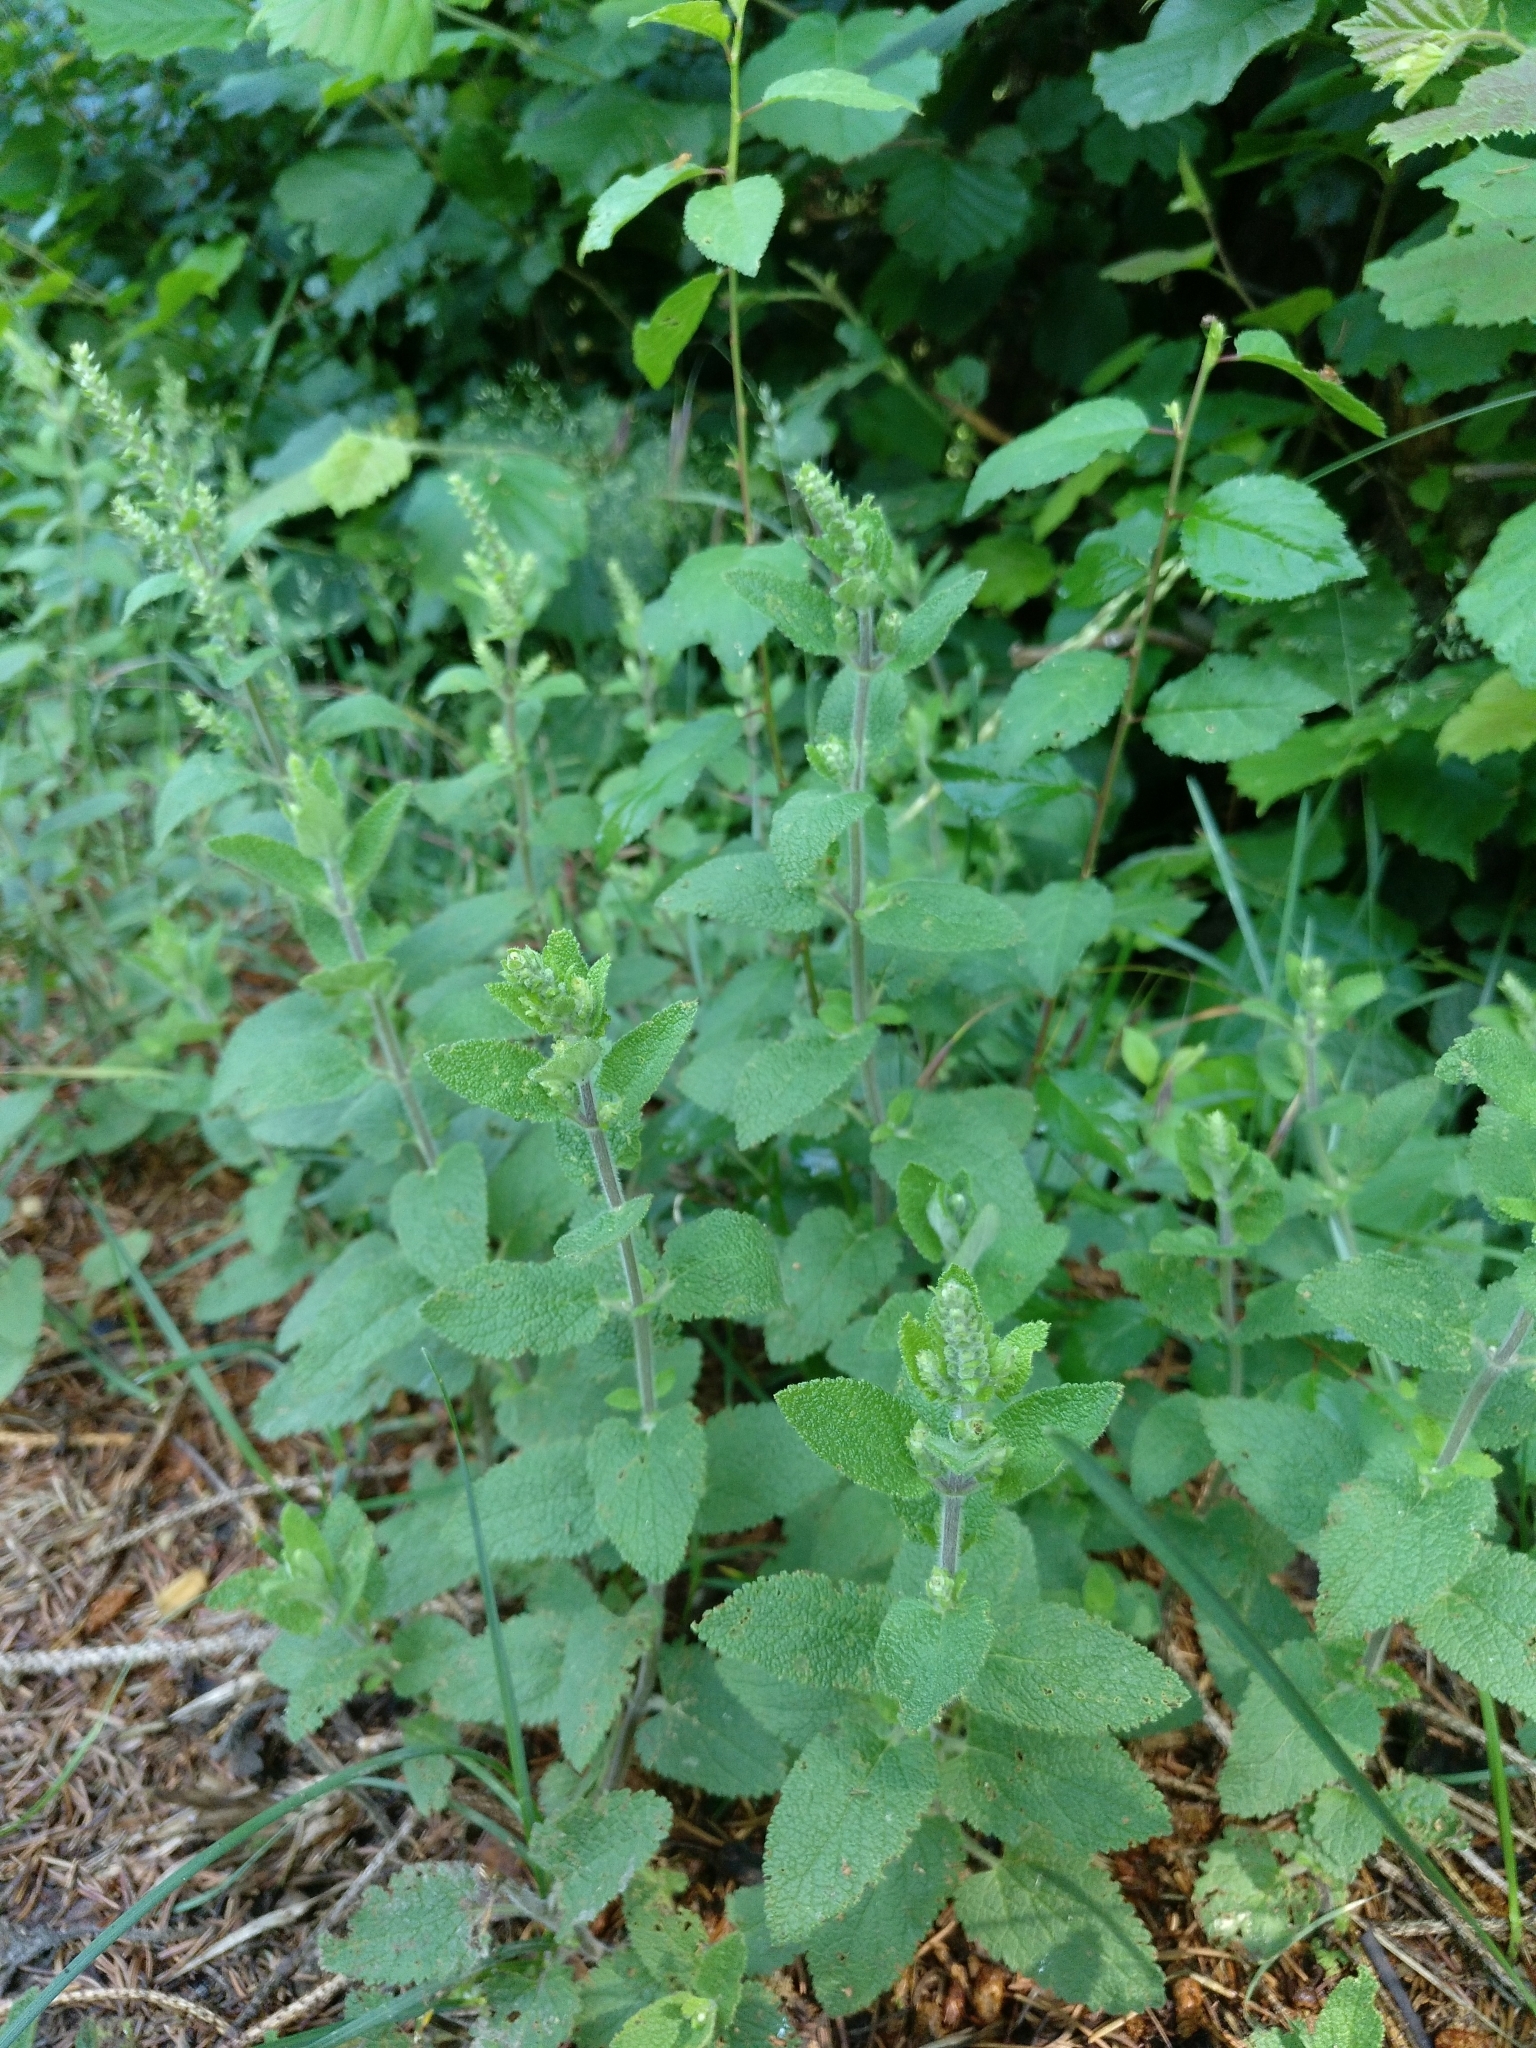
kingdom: Plantae
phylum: Tracheophyta
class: Magnoliopsida
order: Lamiales
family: Lamiaceae
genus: Teucrium
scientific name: Teucrium scorodonia
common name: Woodland germander
